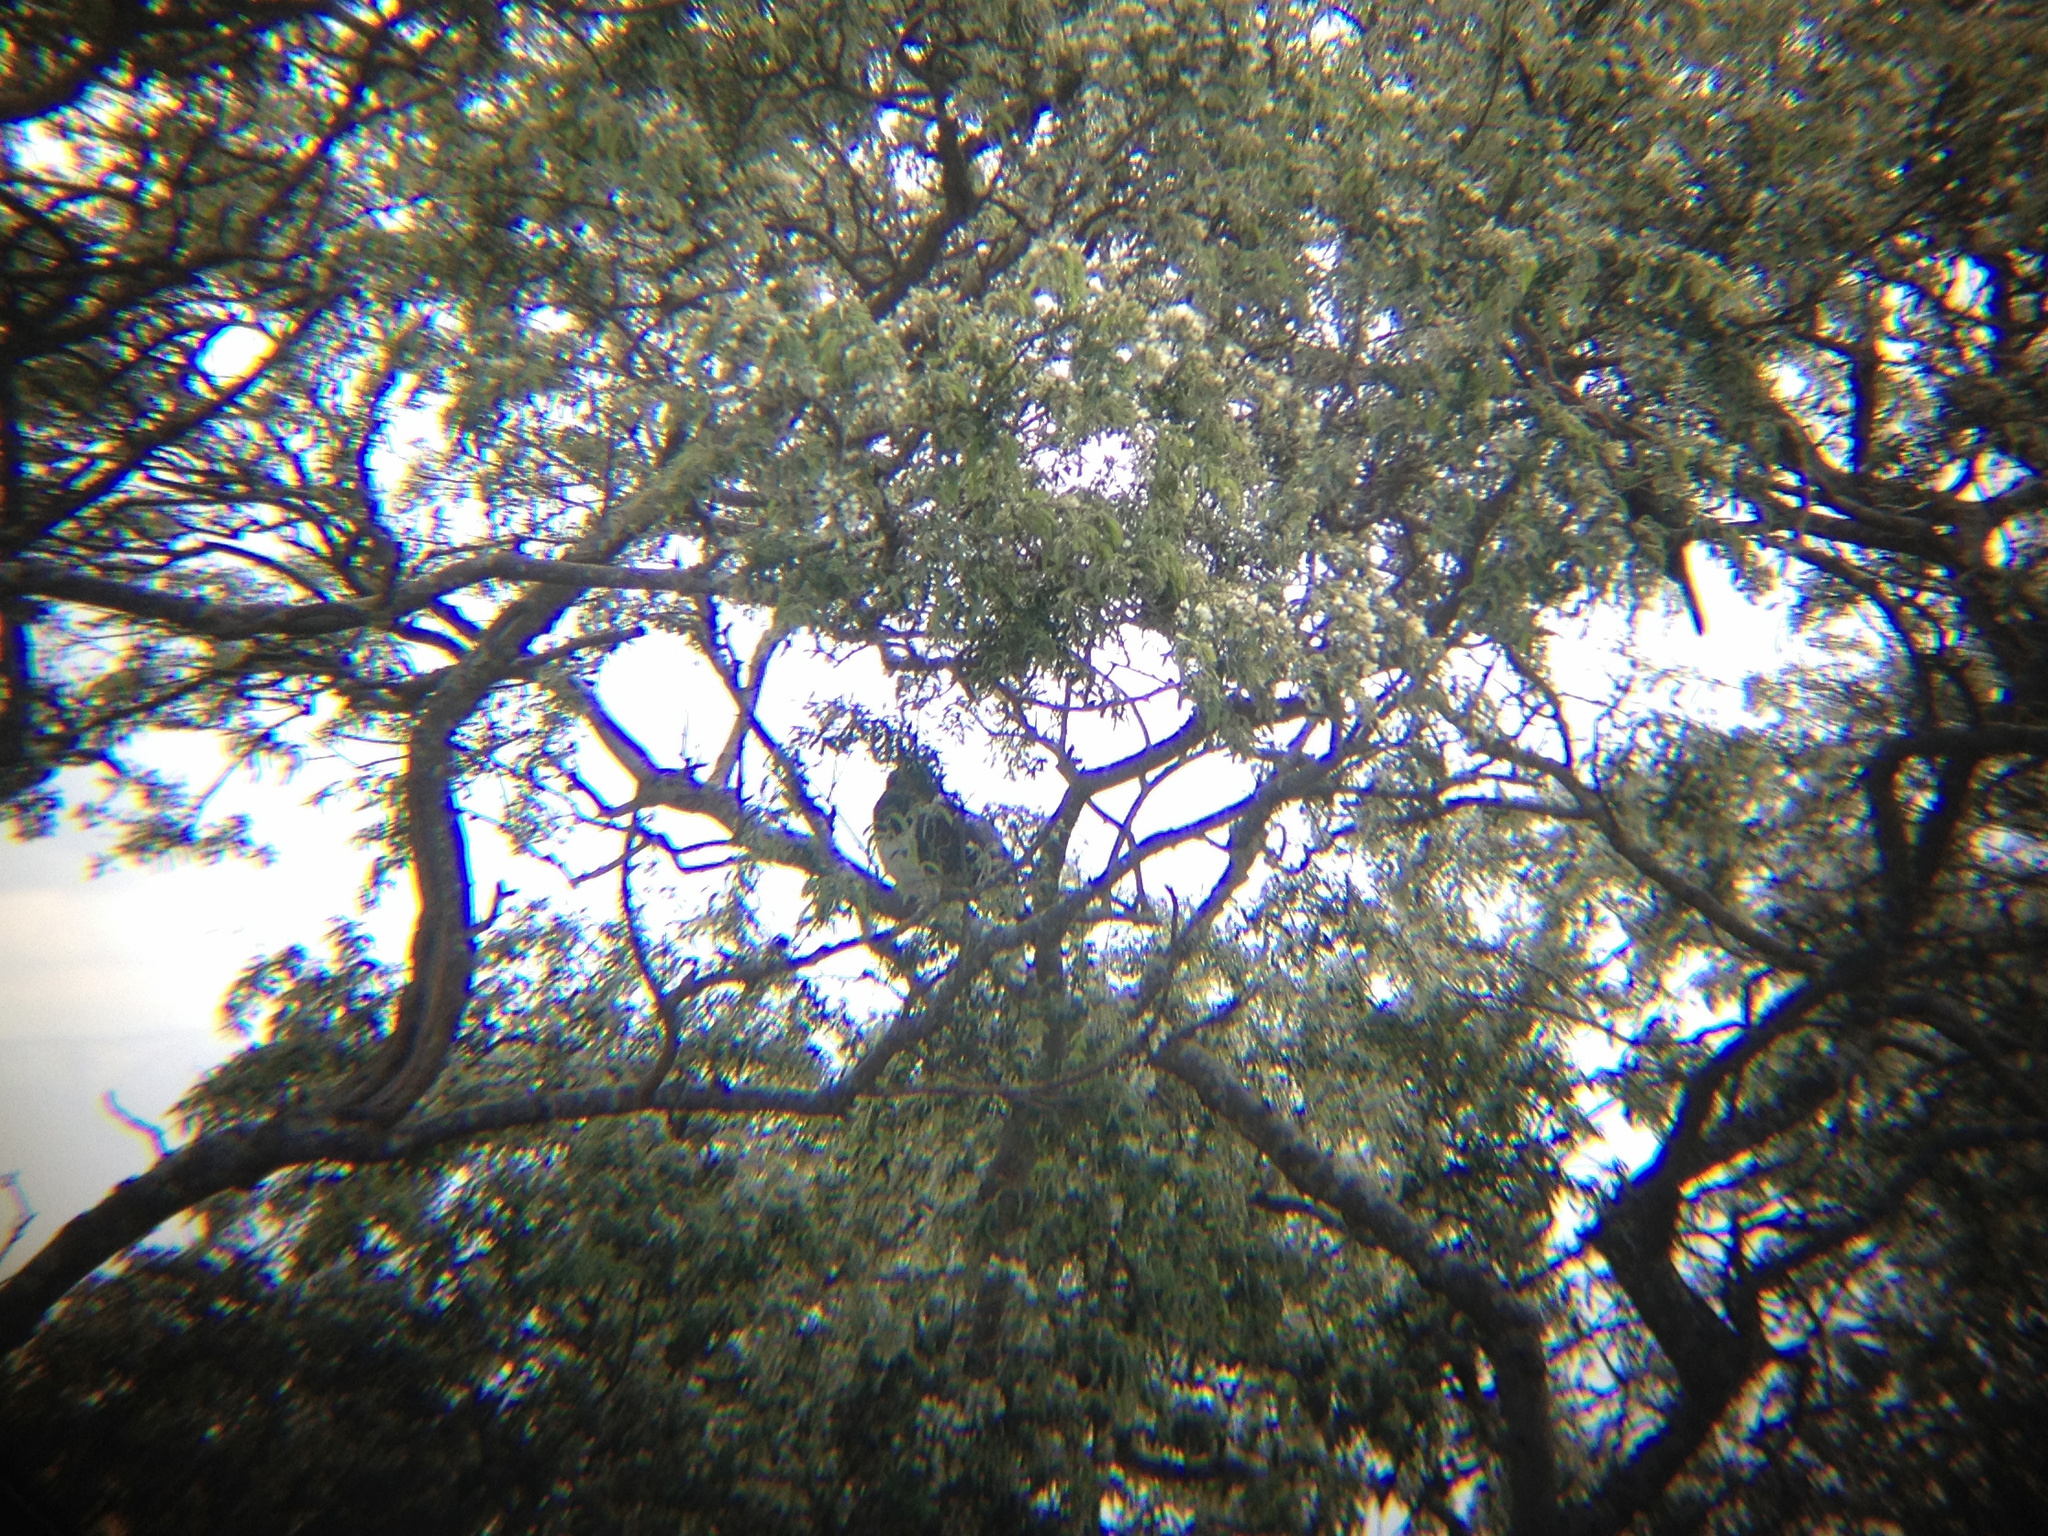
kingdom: Animalia
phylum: Chordata
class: Aves
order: Columbiformes
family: Columbidae
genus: Hemiphaga
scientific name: Hemiphaga novaeseelandiae
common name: New zealand pigeon
